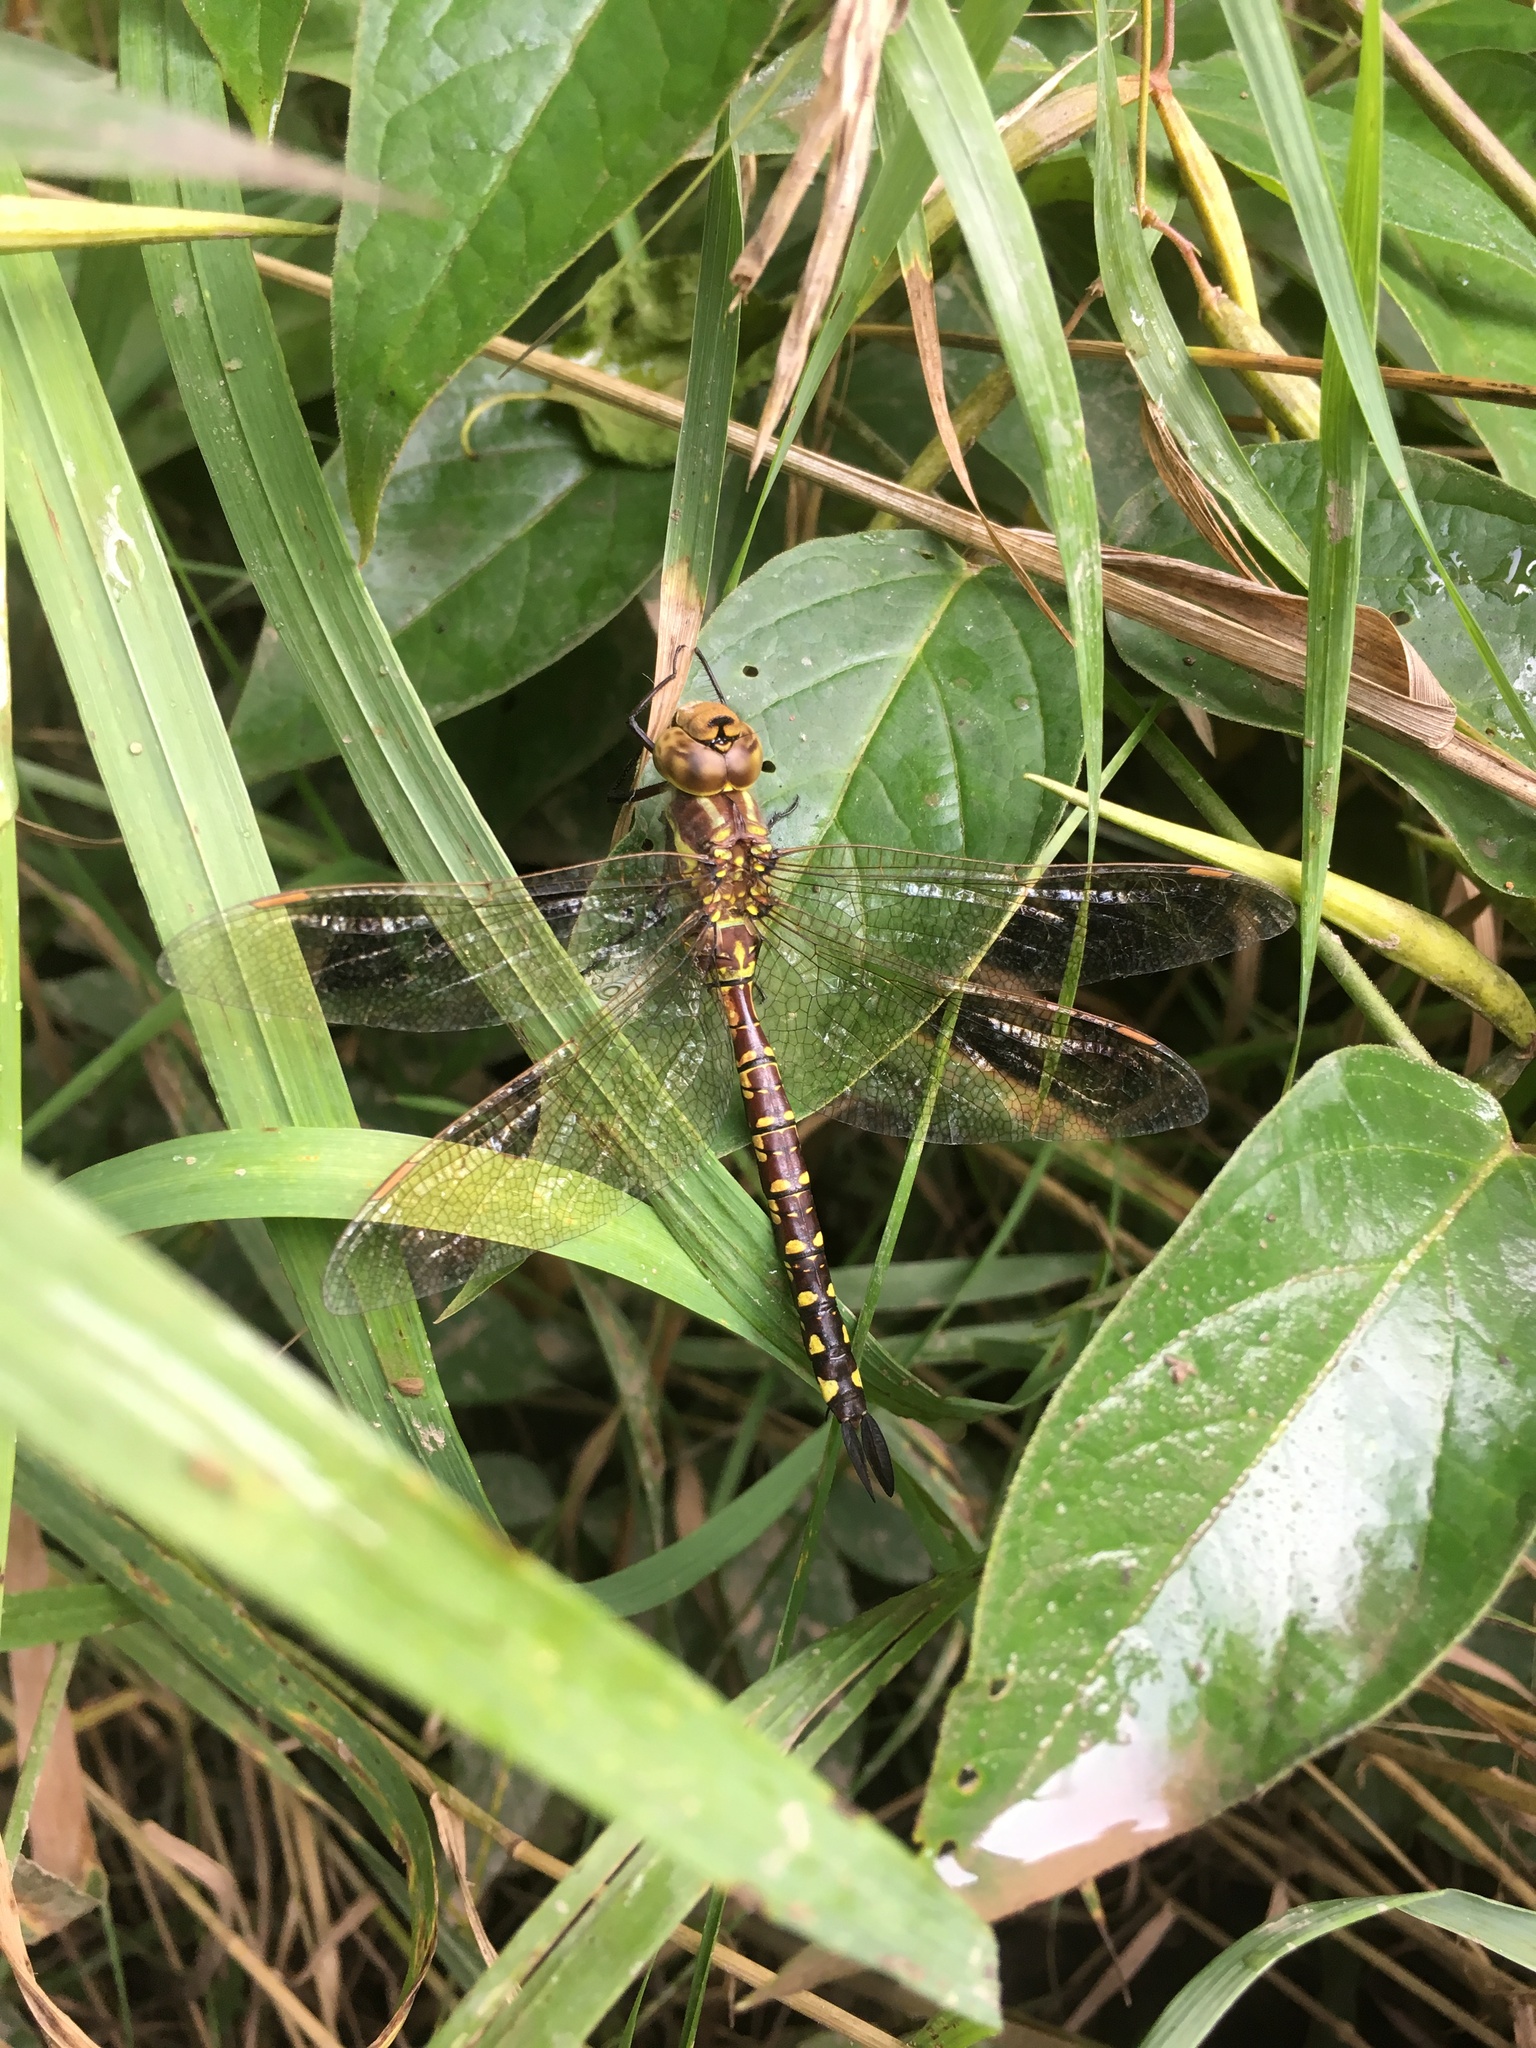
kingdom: Animalia
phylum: Arthropoda
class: Insecta
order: Odonata
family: Aeshnidae
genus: Aeshna
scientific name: Aeshna constricta
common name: Lance-tipped darner
